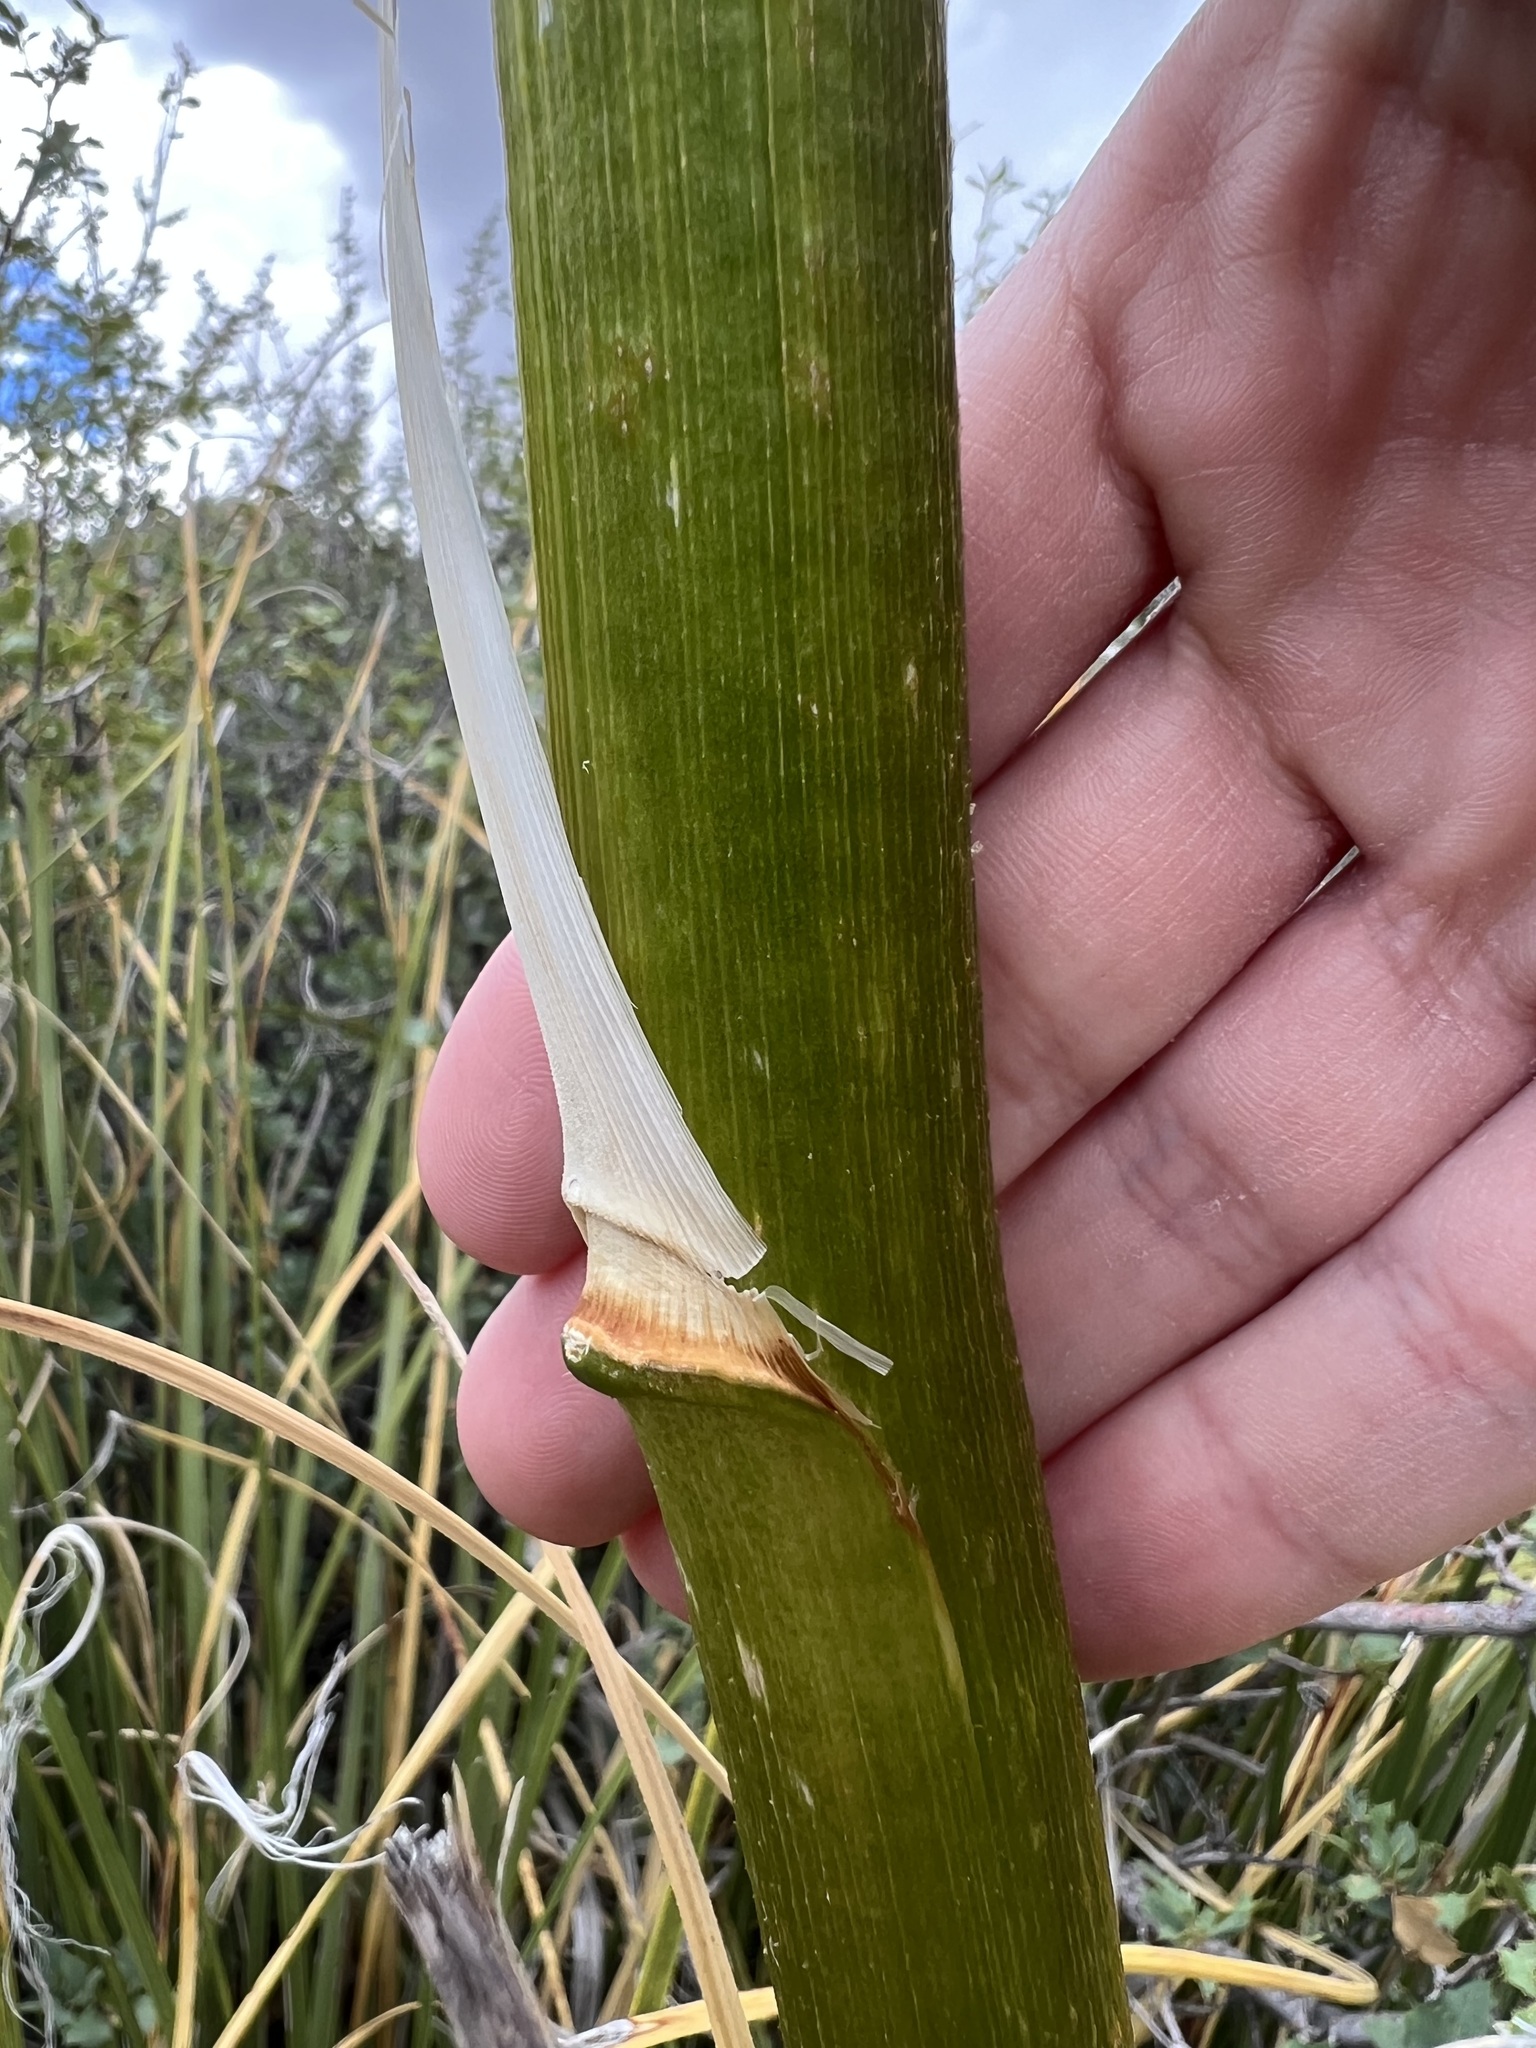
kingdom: Plantae
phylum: Tracheophyta
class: Liliopsida
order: Asparagales
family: Asparagaceae
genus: Nolina
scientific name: Nolina microcarpa
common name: Bear-grass
